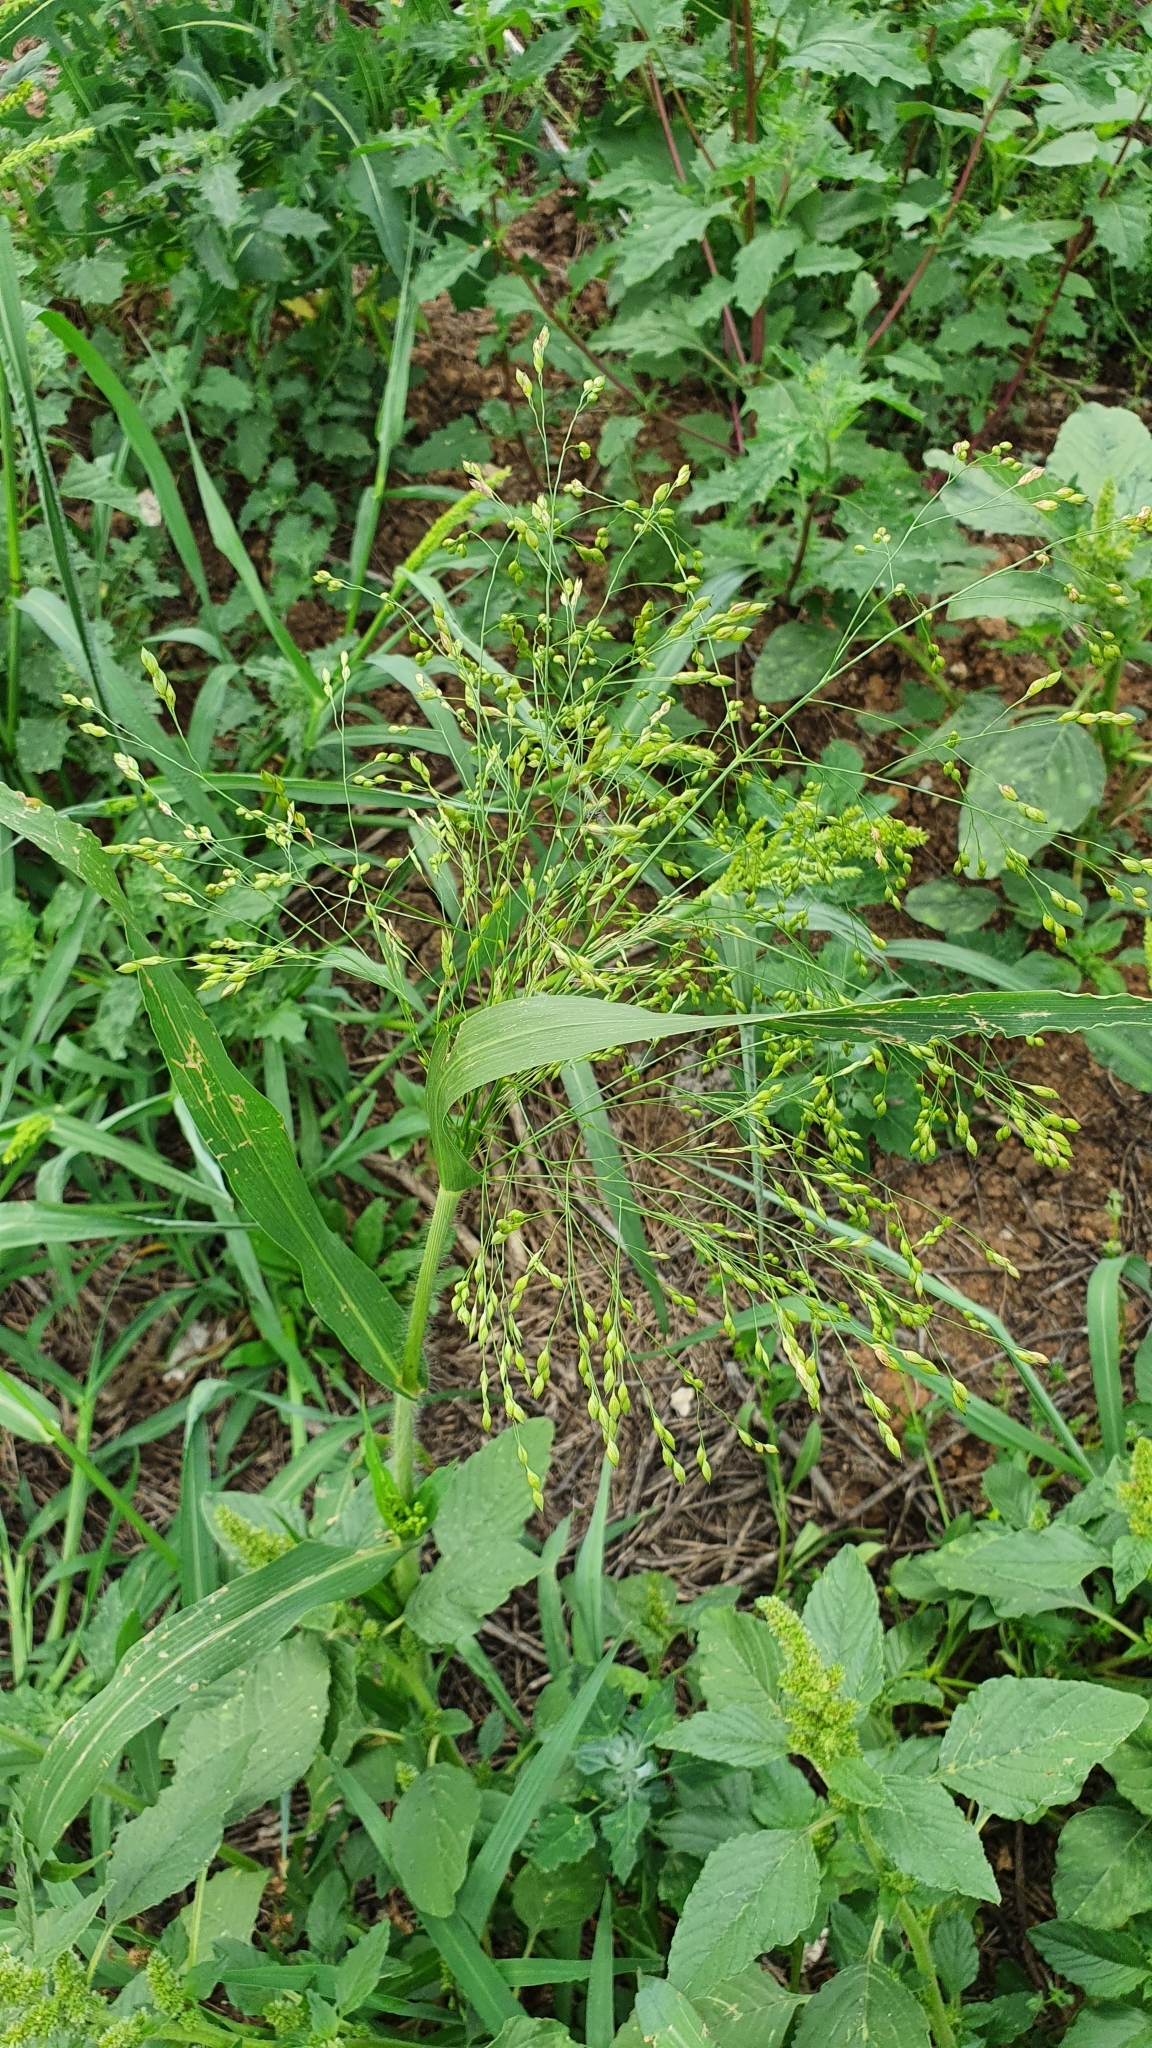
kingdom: Plantae
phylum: Tracheophyta
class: Liliopsida
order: Poales
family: Poaceae
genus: Panicum
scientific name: Panicum miliaceum
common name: Common millet
